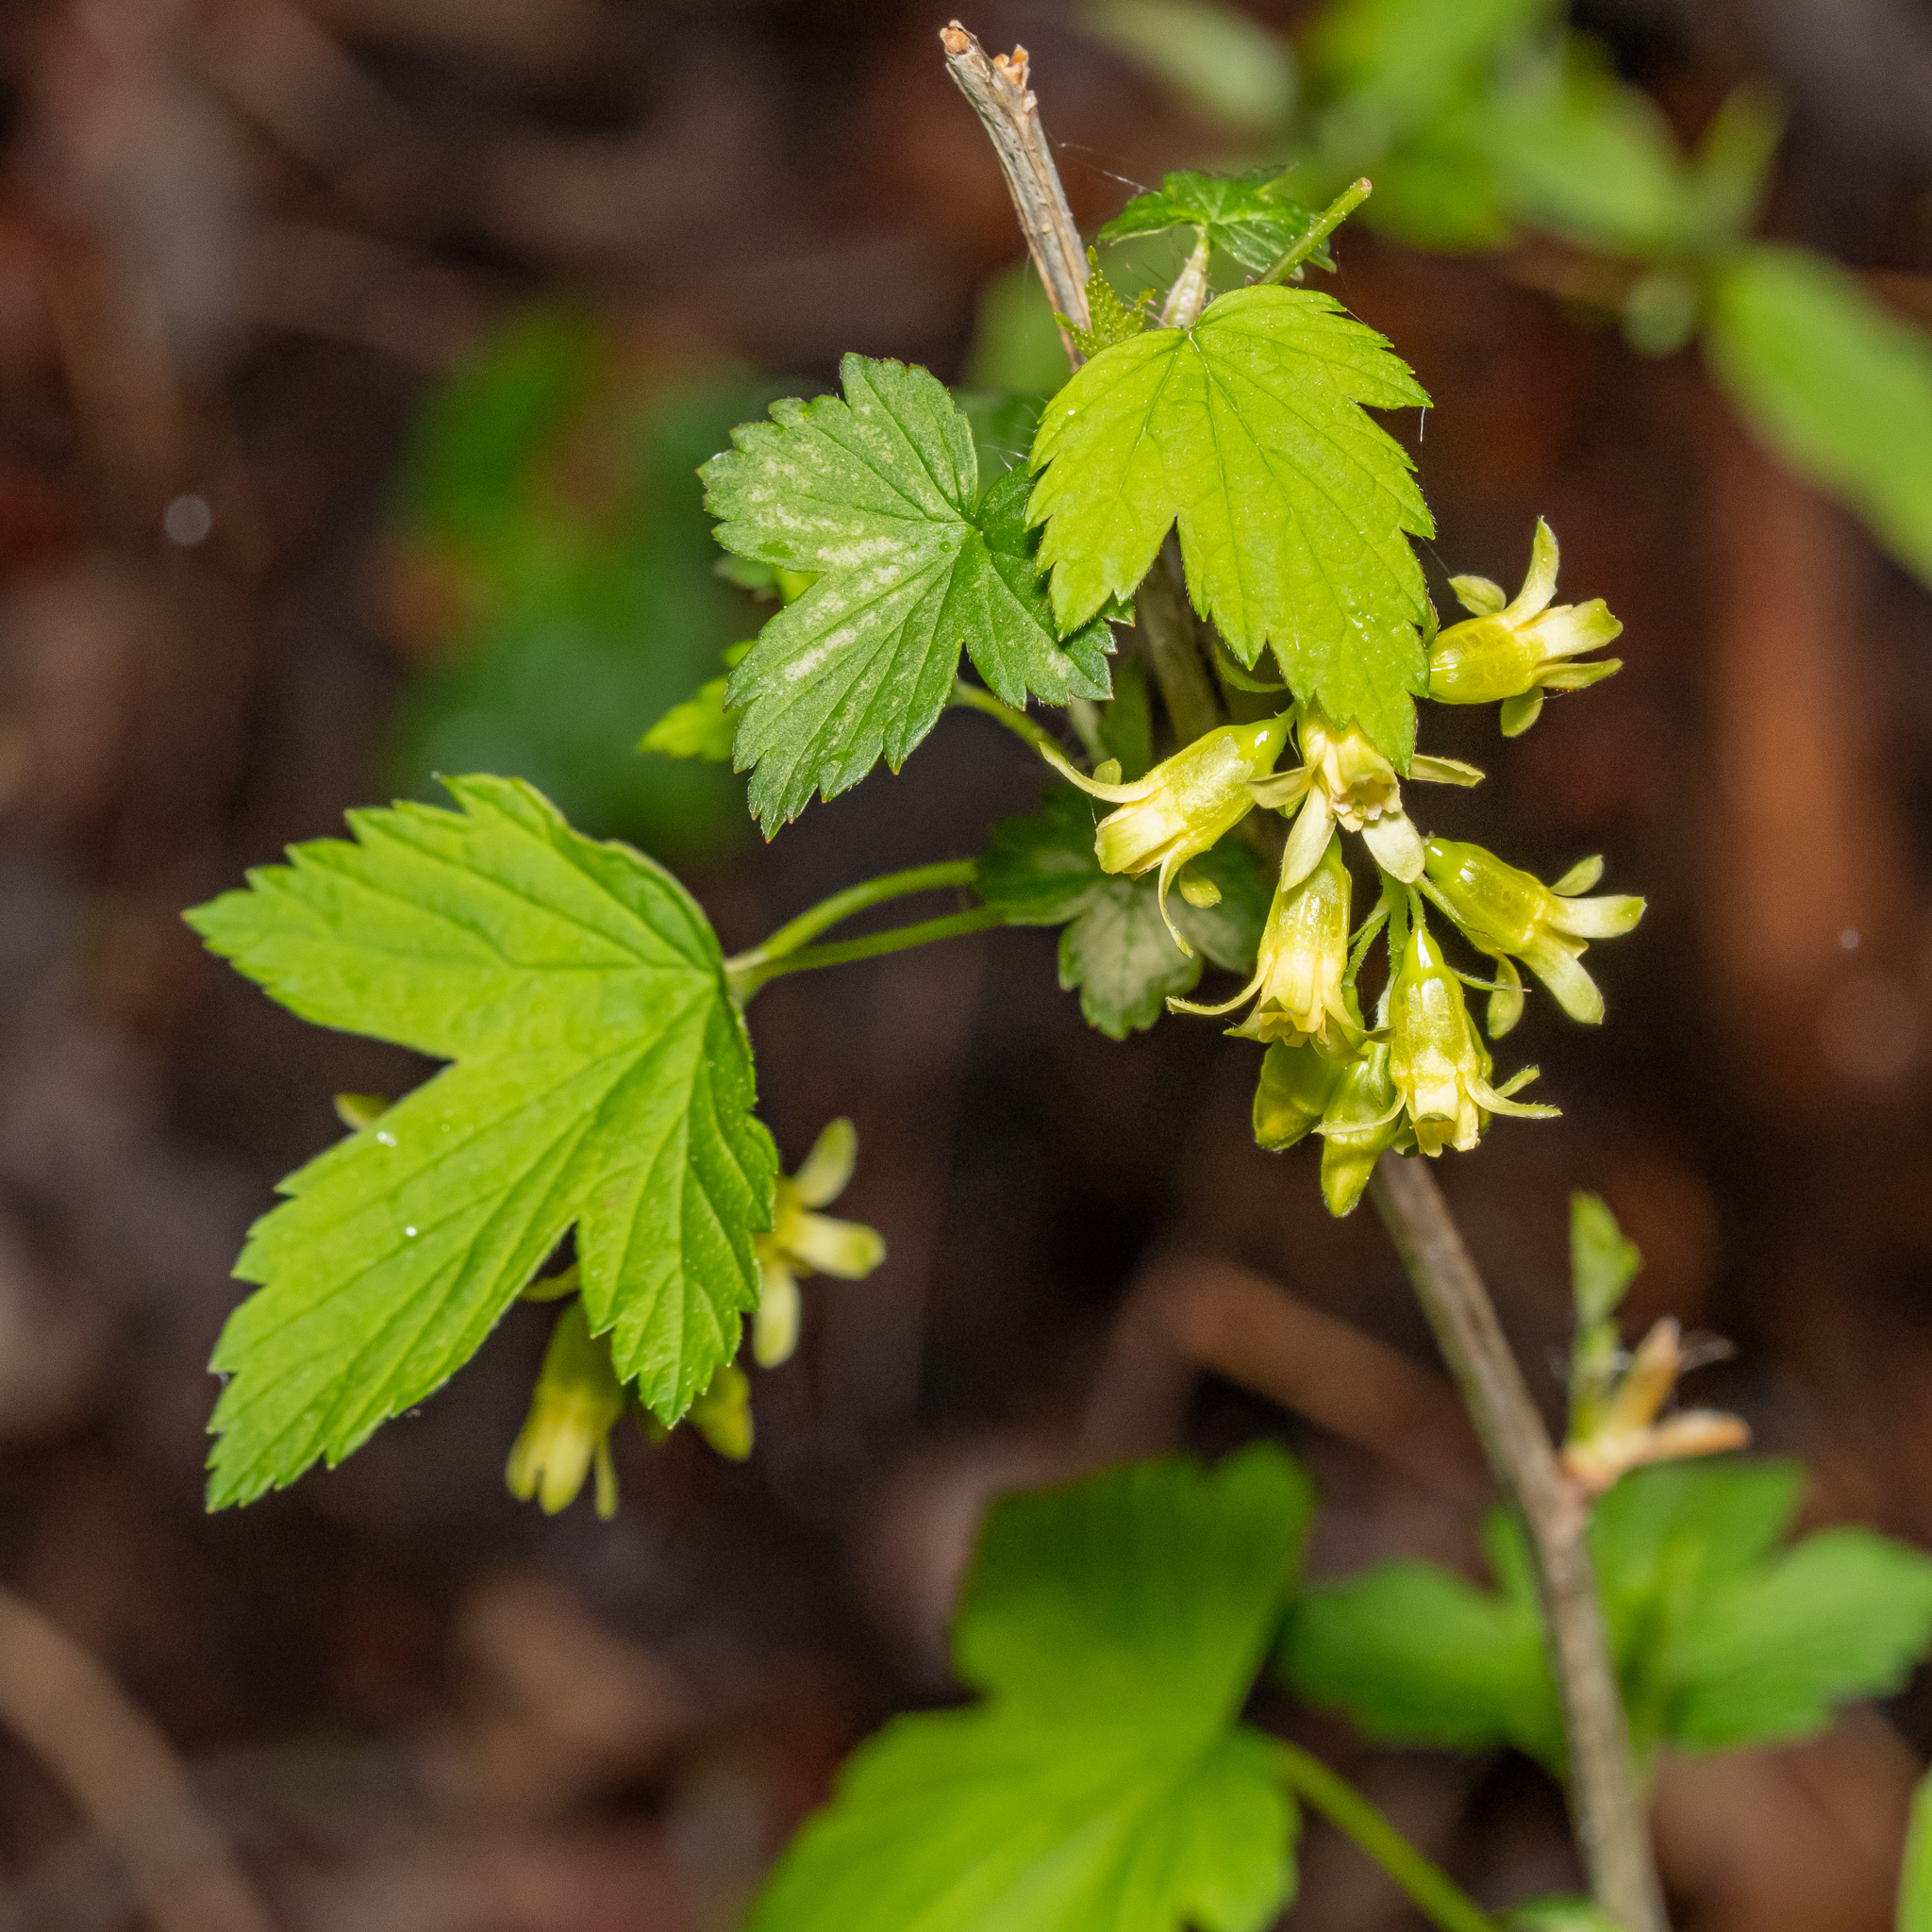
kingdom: Plantae
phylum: Tracheophyta
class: Magnoliopsida
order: Saxifragales
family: Grossulariaceae
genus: Ribes
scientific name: Ribes americanum
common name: American black currant
